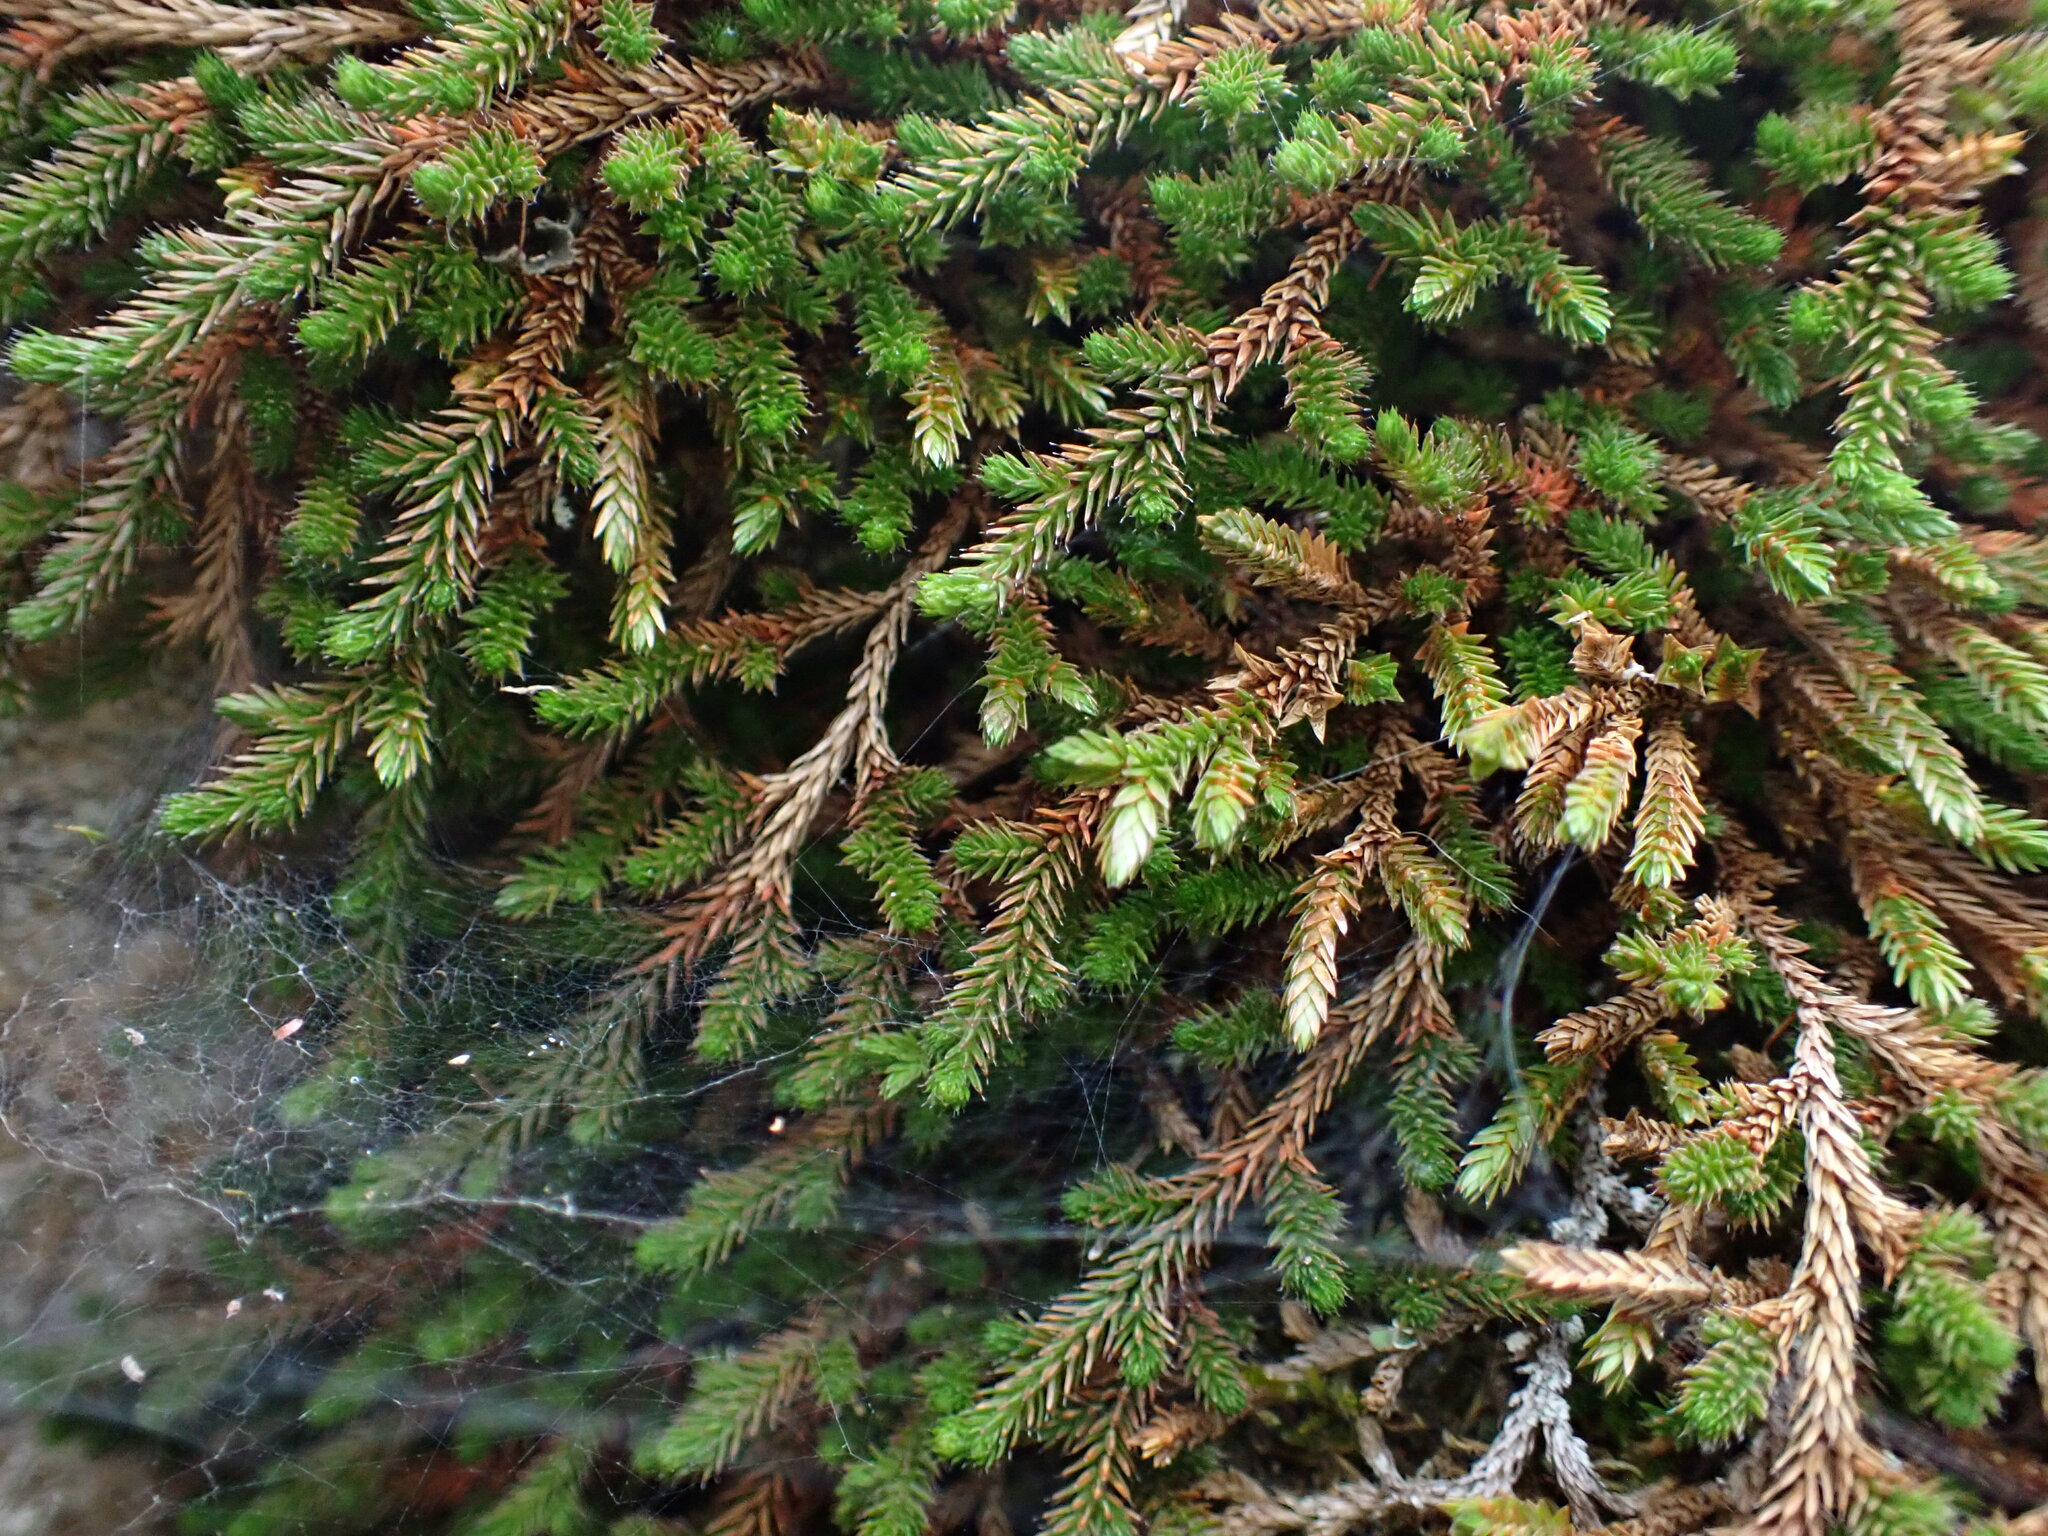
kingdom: Plantae
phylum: Tracheophyta
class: Lycopodiopsida
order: Selaginellales
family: Selaginellaceae
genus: Selaginella
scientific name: Selaginella wallacei
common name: Wallace's selaginella
